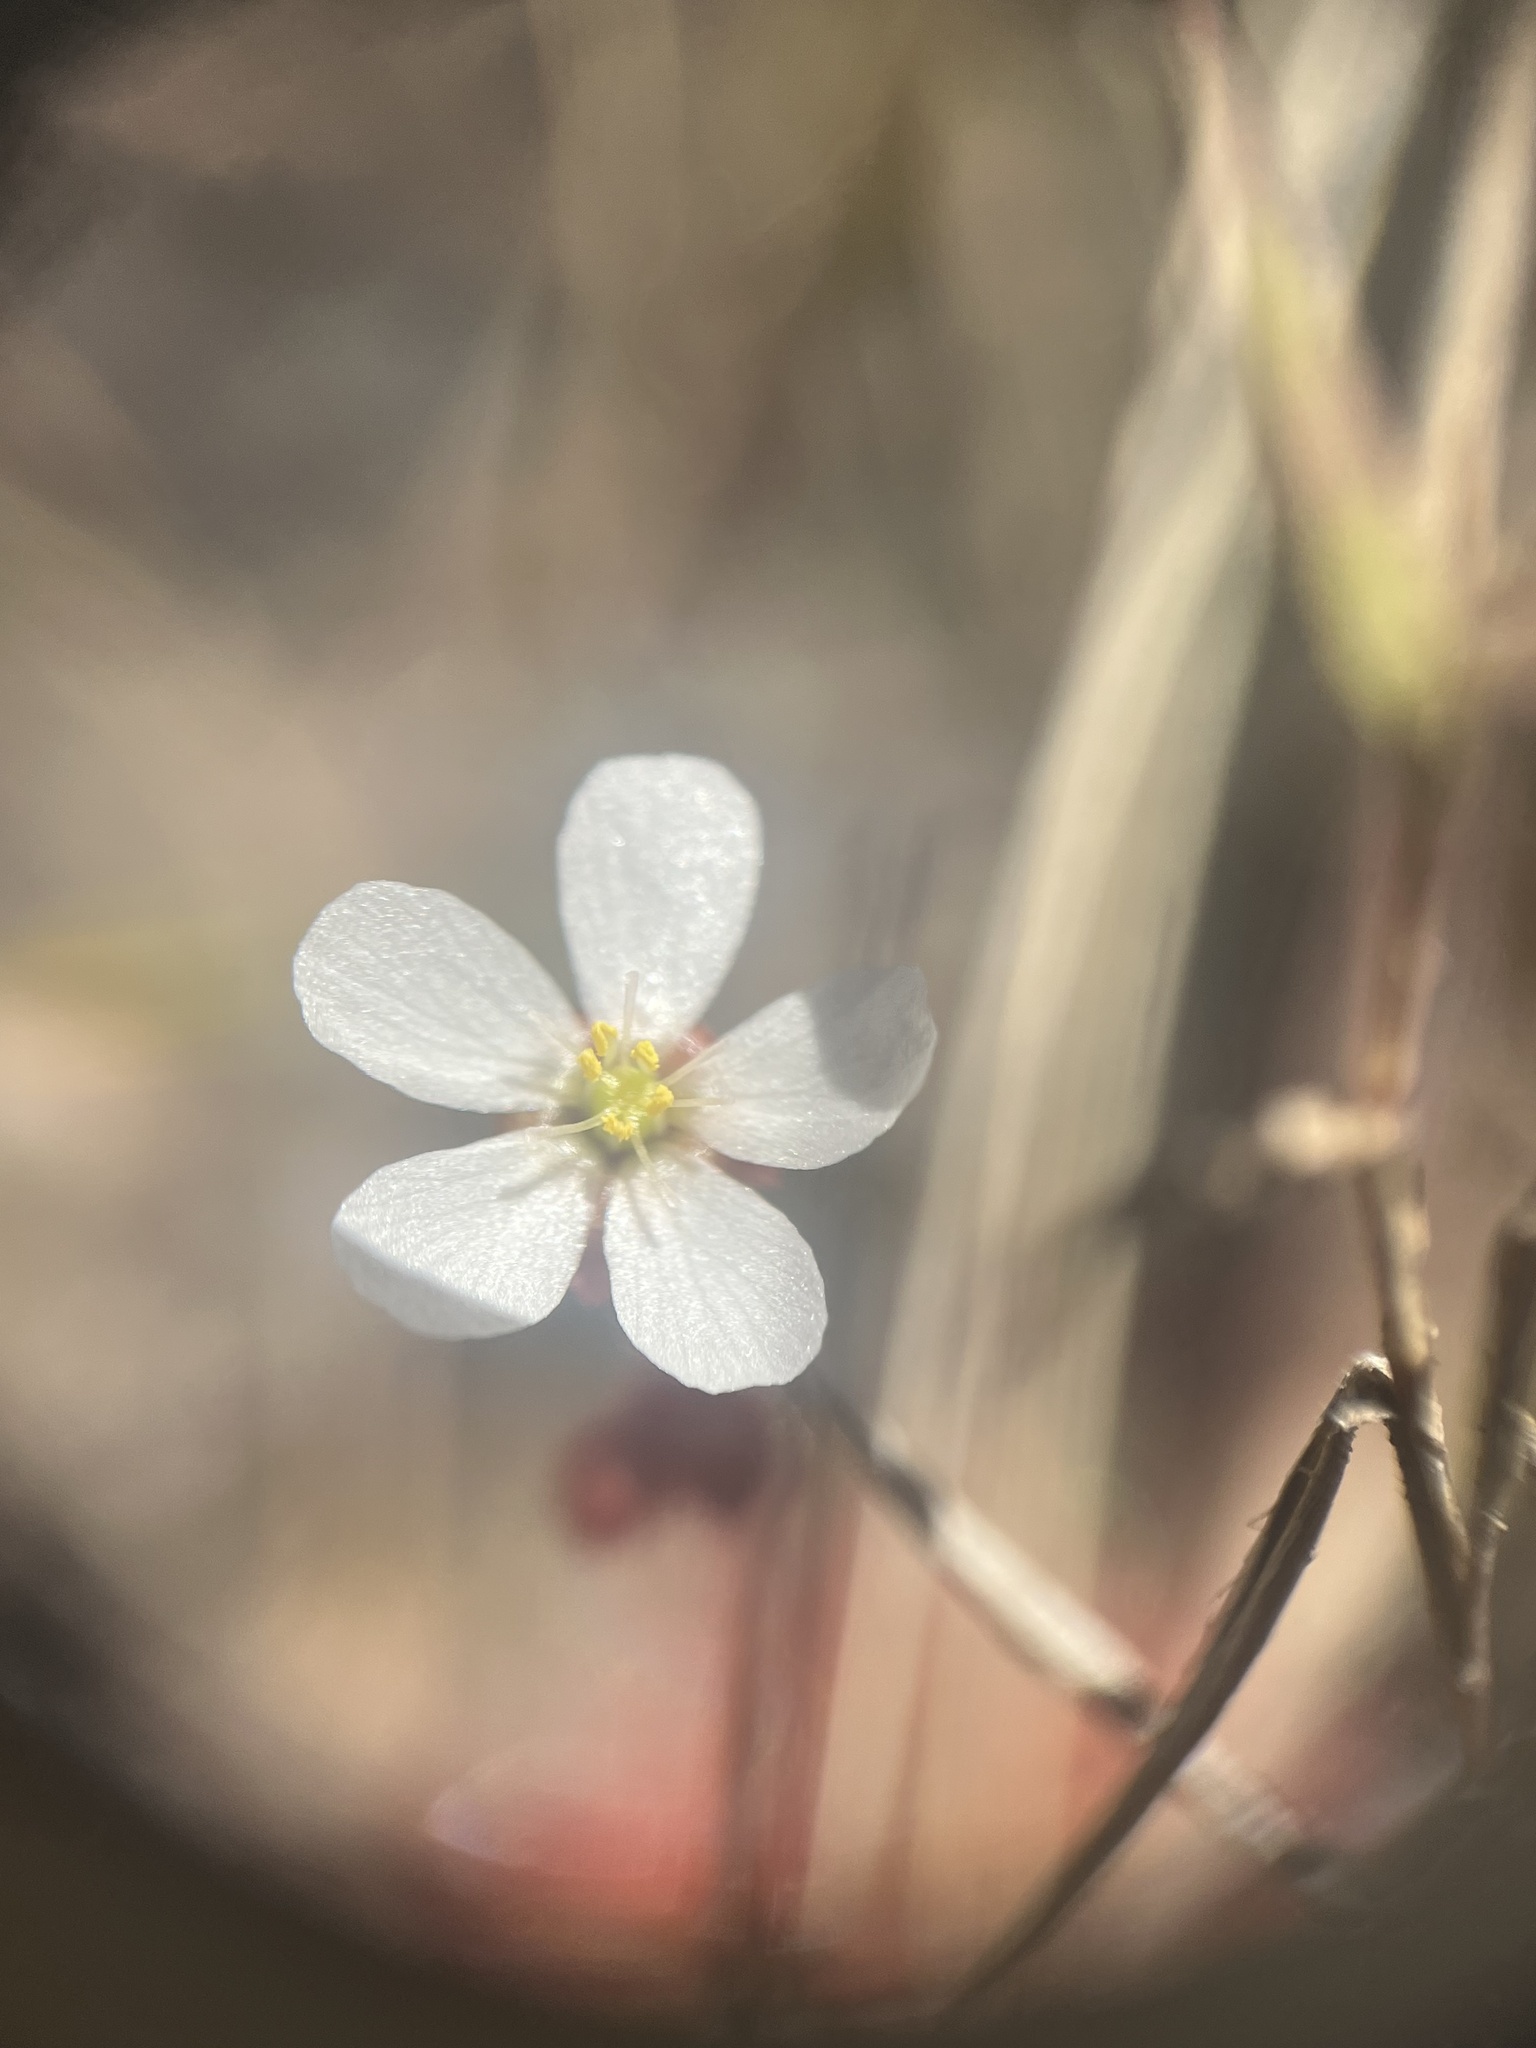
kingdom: Plantae
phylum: Tracheophyta
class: Magnoliopsida
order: Caryophyllales
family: Droseraceae
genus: Drosera
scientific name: Drosera brevifolia
